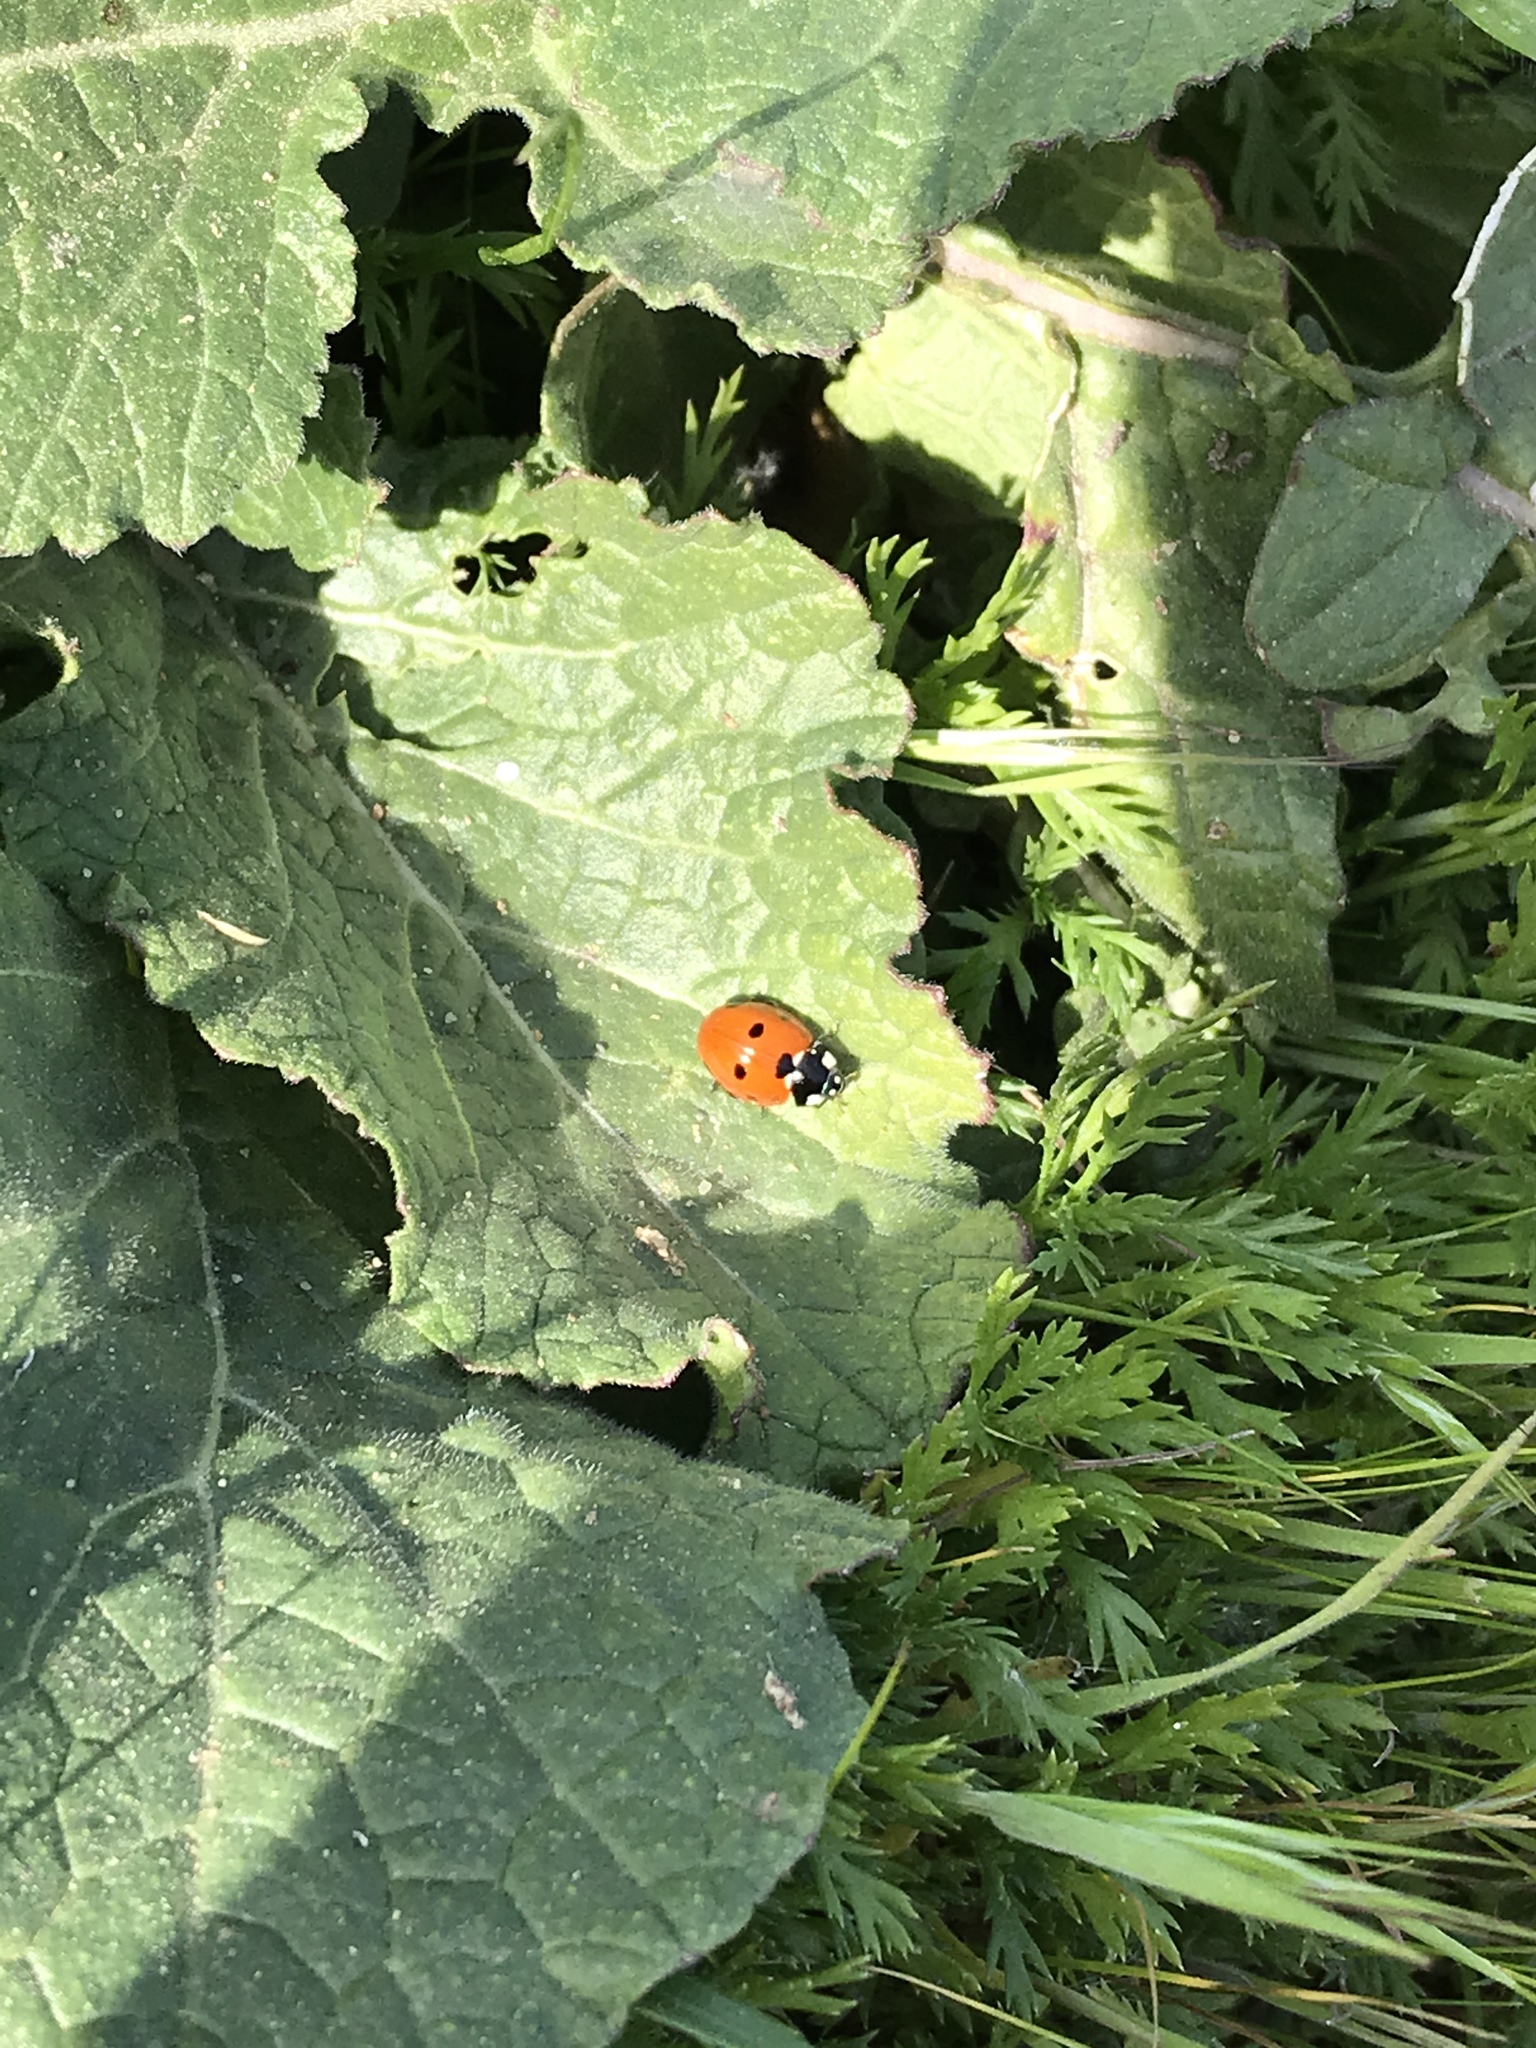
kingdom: Animalia
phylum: Arthropoda
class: Insecta
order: Coleoptera
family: Coccinellidae
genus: Coccinella
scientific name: Coccinella septempunctata
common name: Sevenspotted lady beetle
